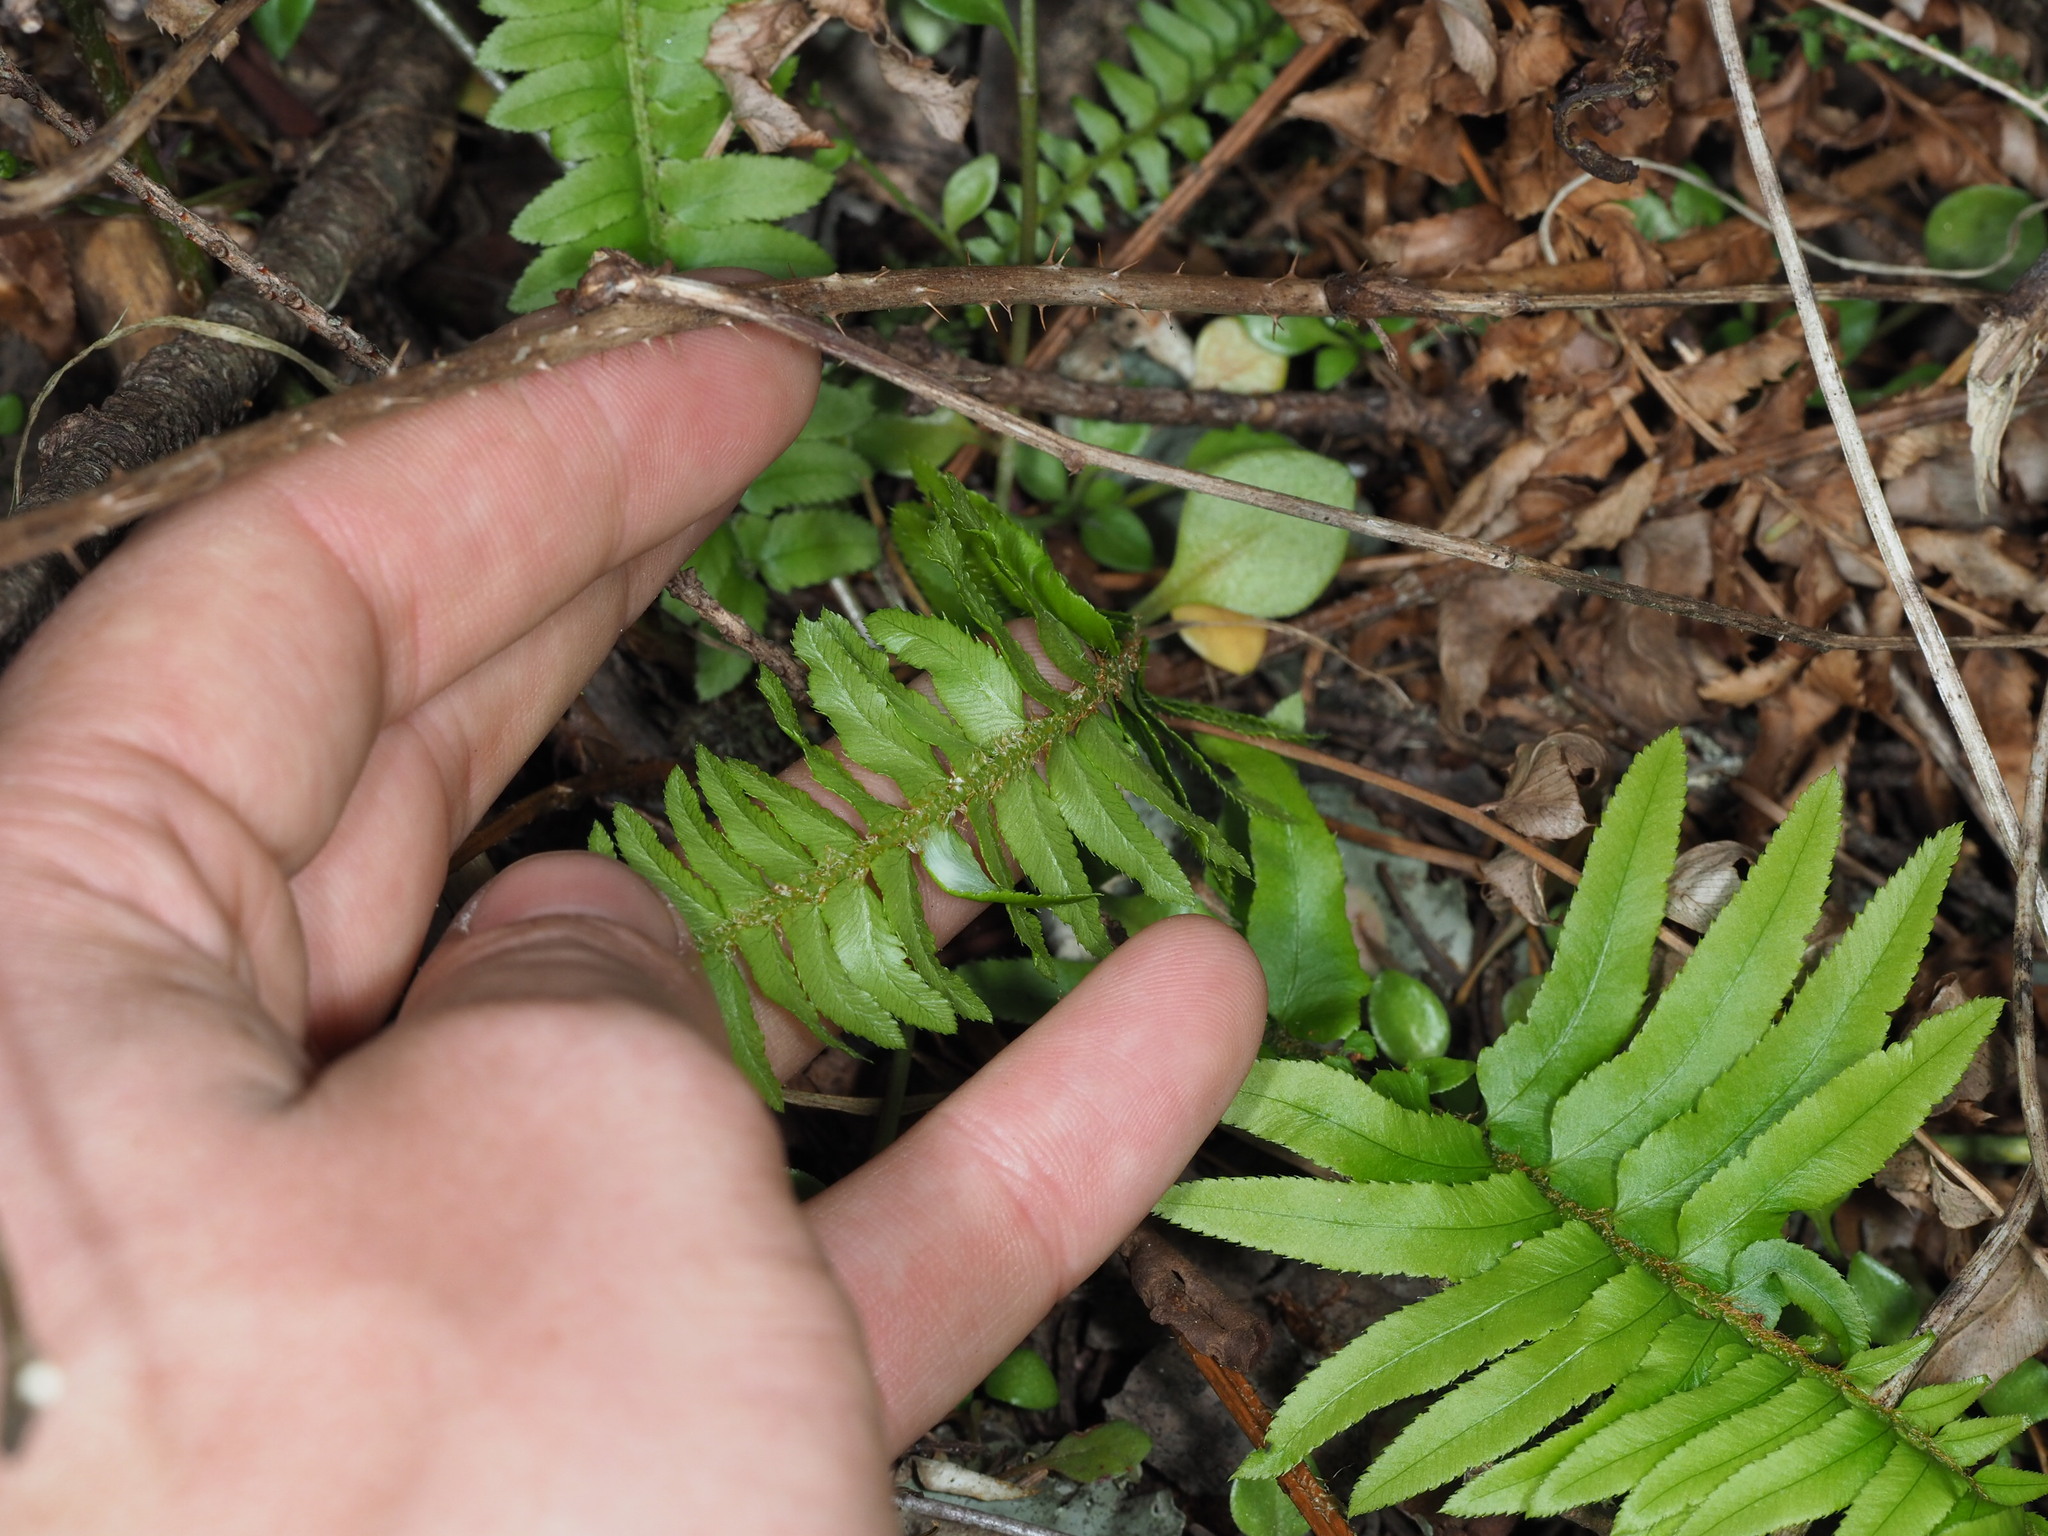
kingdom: Plantae
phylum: Tracheophyta
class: Polypodiopsida
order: Polypodiales
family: Dryopteridaceae
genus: Polystichum
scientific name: Polystichum munitum
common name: Western sword-fern
